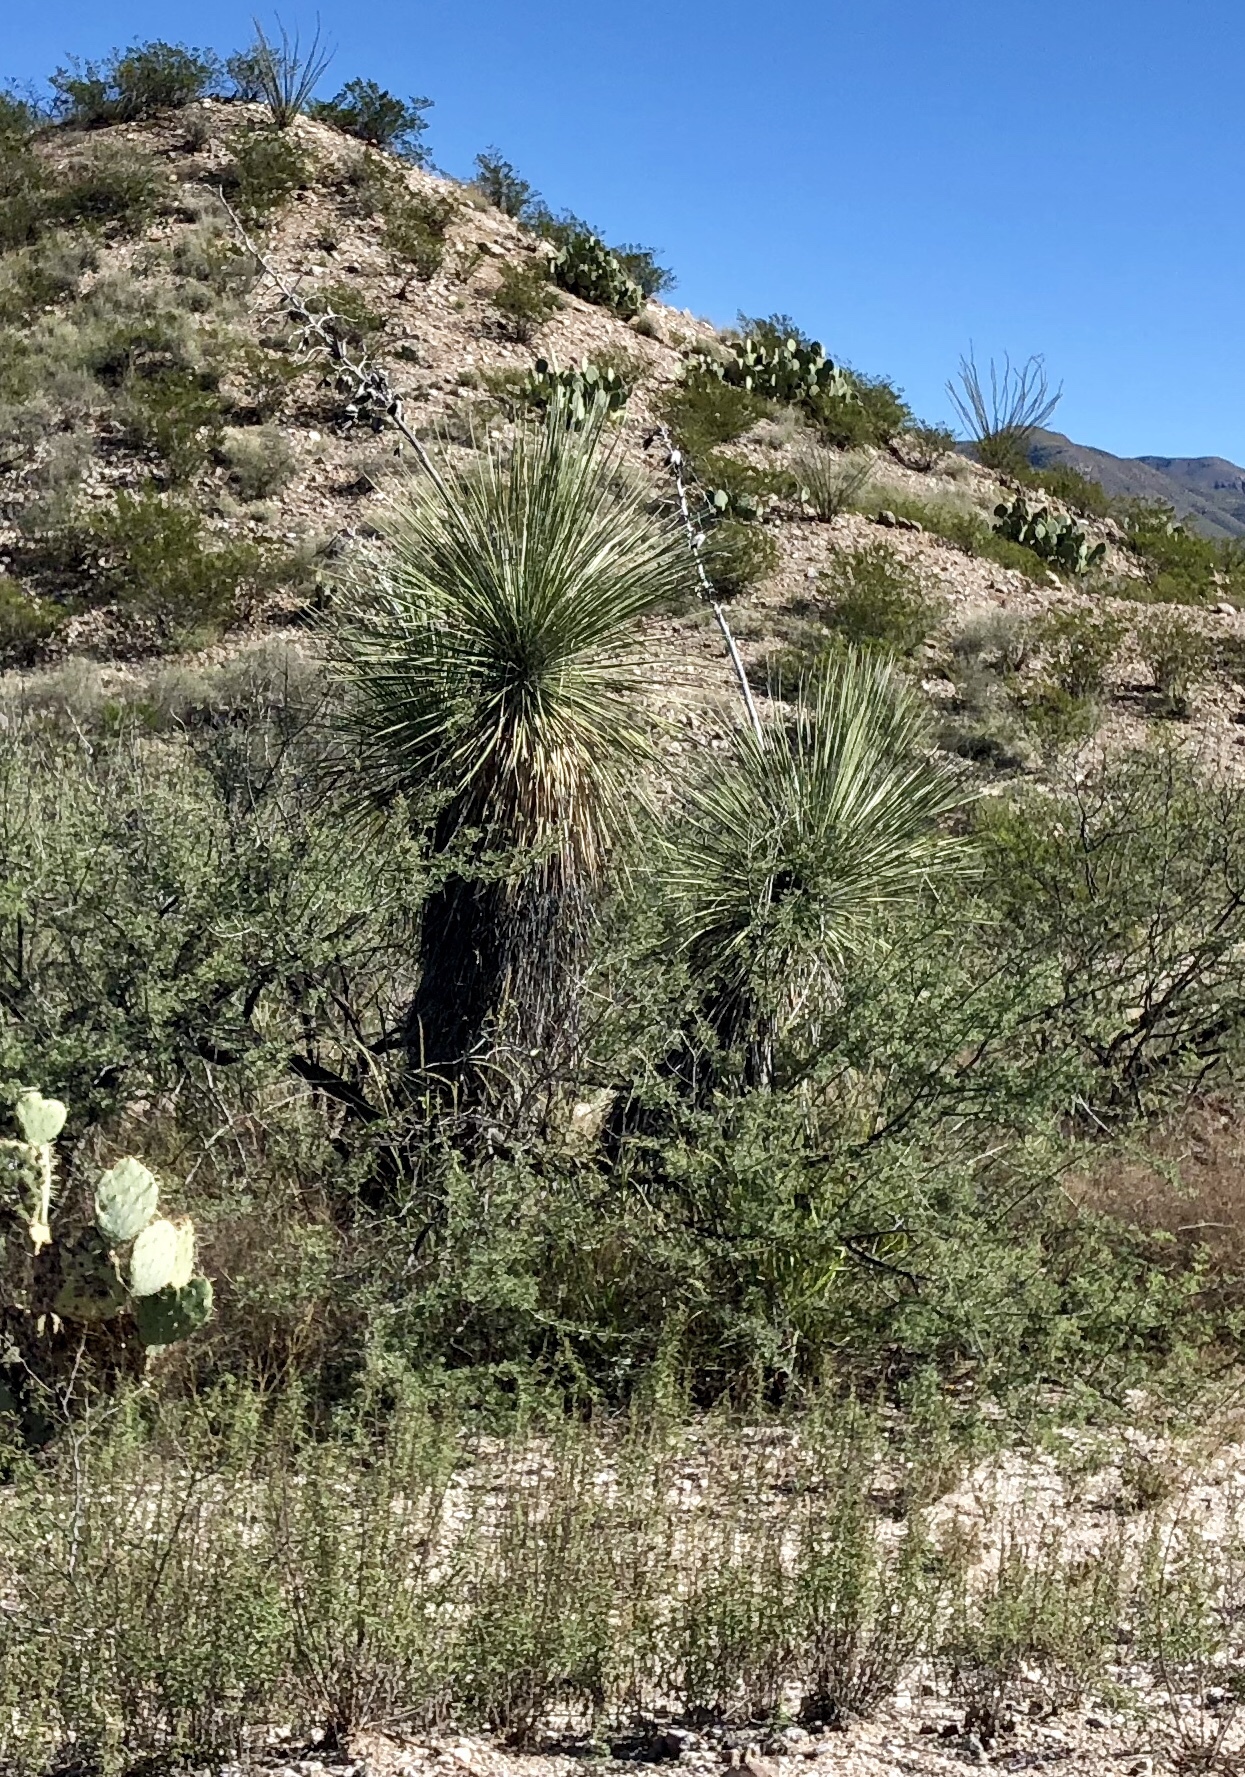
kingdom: Plantae
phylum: Tracheophyta
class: Liliopsida
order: Asparagales
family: Asparagaceae
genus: Yucca
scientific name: Yucca elata
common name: Palmella
